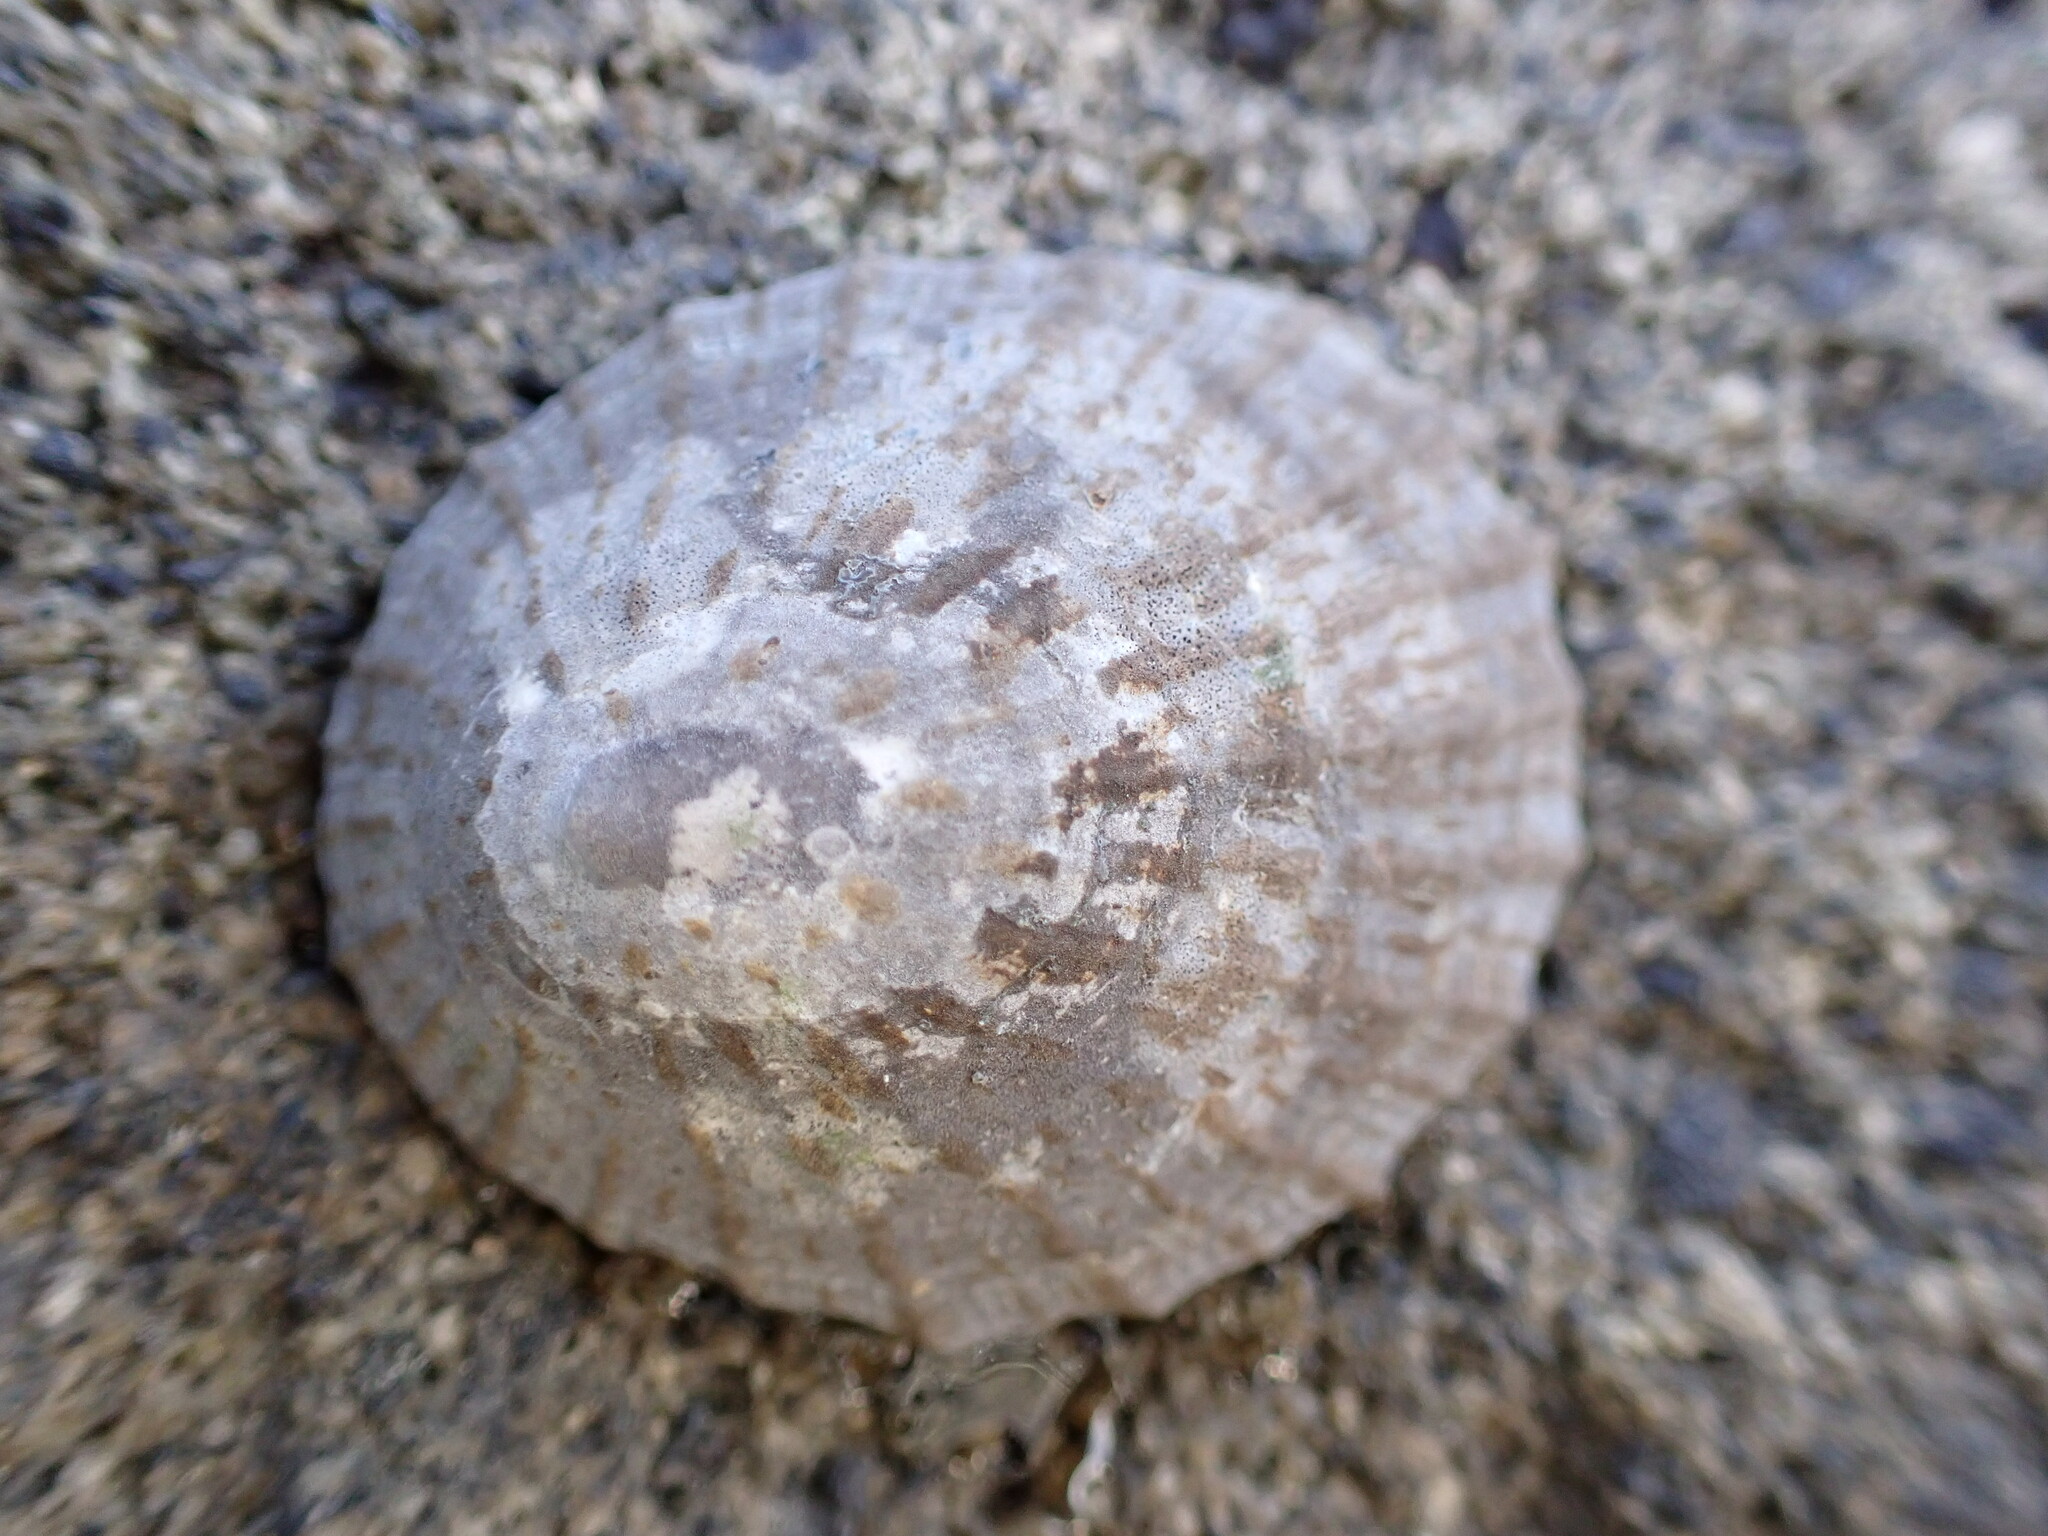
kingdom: Animalia
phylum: Mollusca
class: Gastropoda
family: Nacellidae
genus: Cellana
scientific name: Cellana radians
